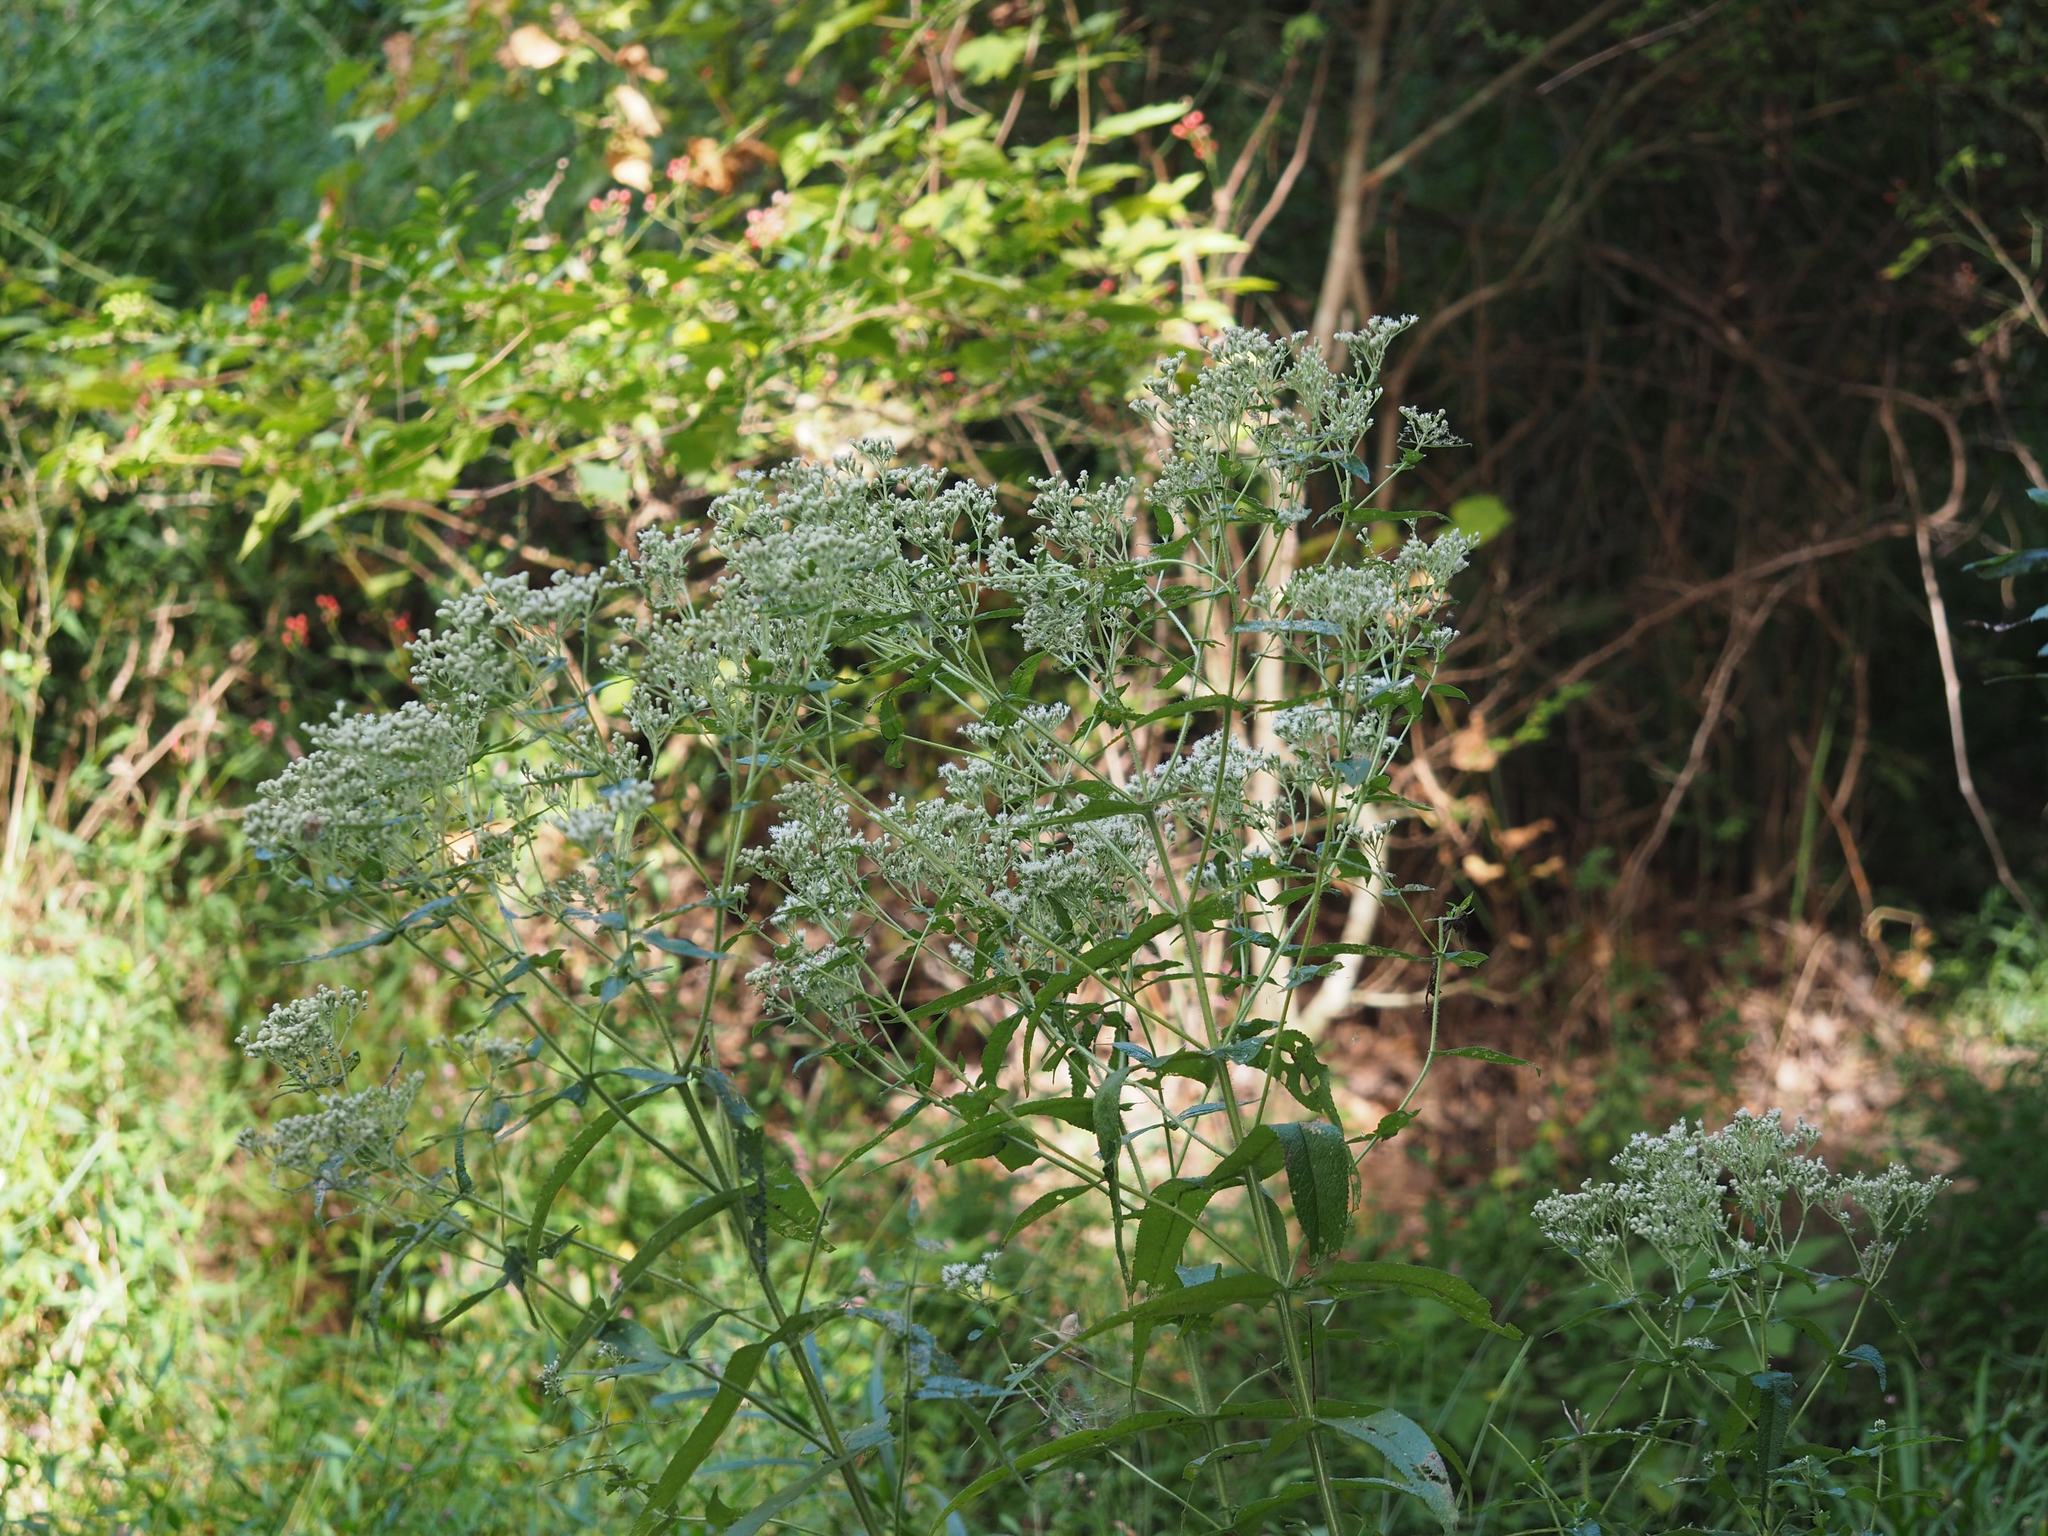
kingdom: Plantae
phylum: Tracheophyta
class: Magnoliopsida
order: Asterales
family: Asteraceae
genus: Eupatorium
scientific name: Eupatorium perfoliatum
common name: Boneset
